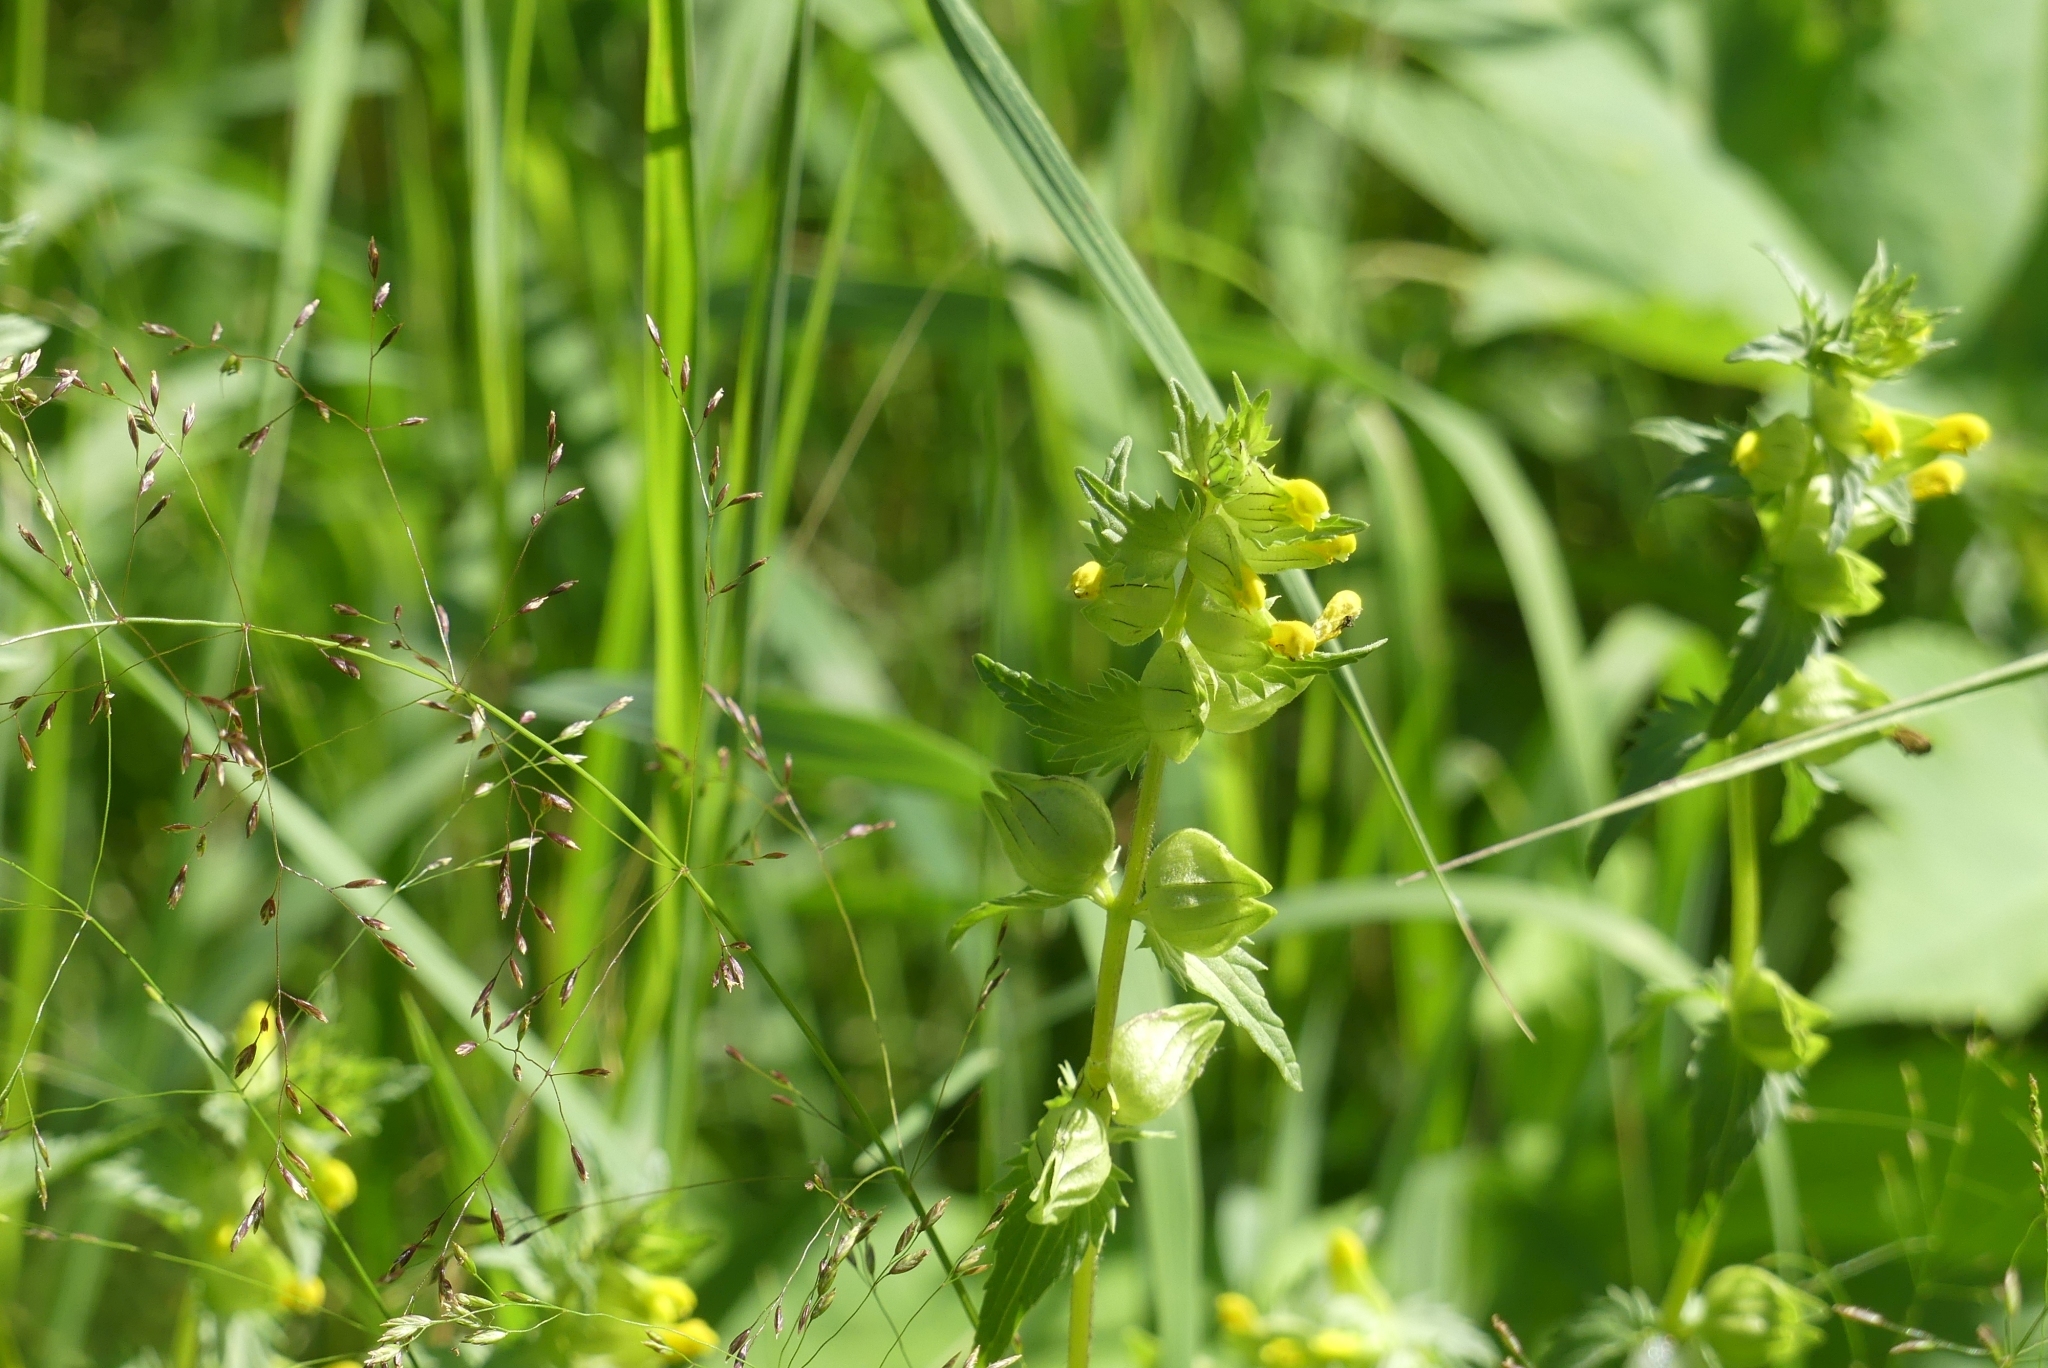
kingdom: Plantae
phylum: Tracheophyta
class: Magnoliopsida
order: Lamiales
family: Orobanchaceae
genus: Rhinanthus
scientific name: Rhinanthus minor
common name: Yellow-rattle
